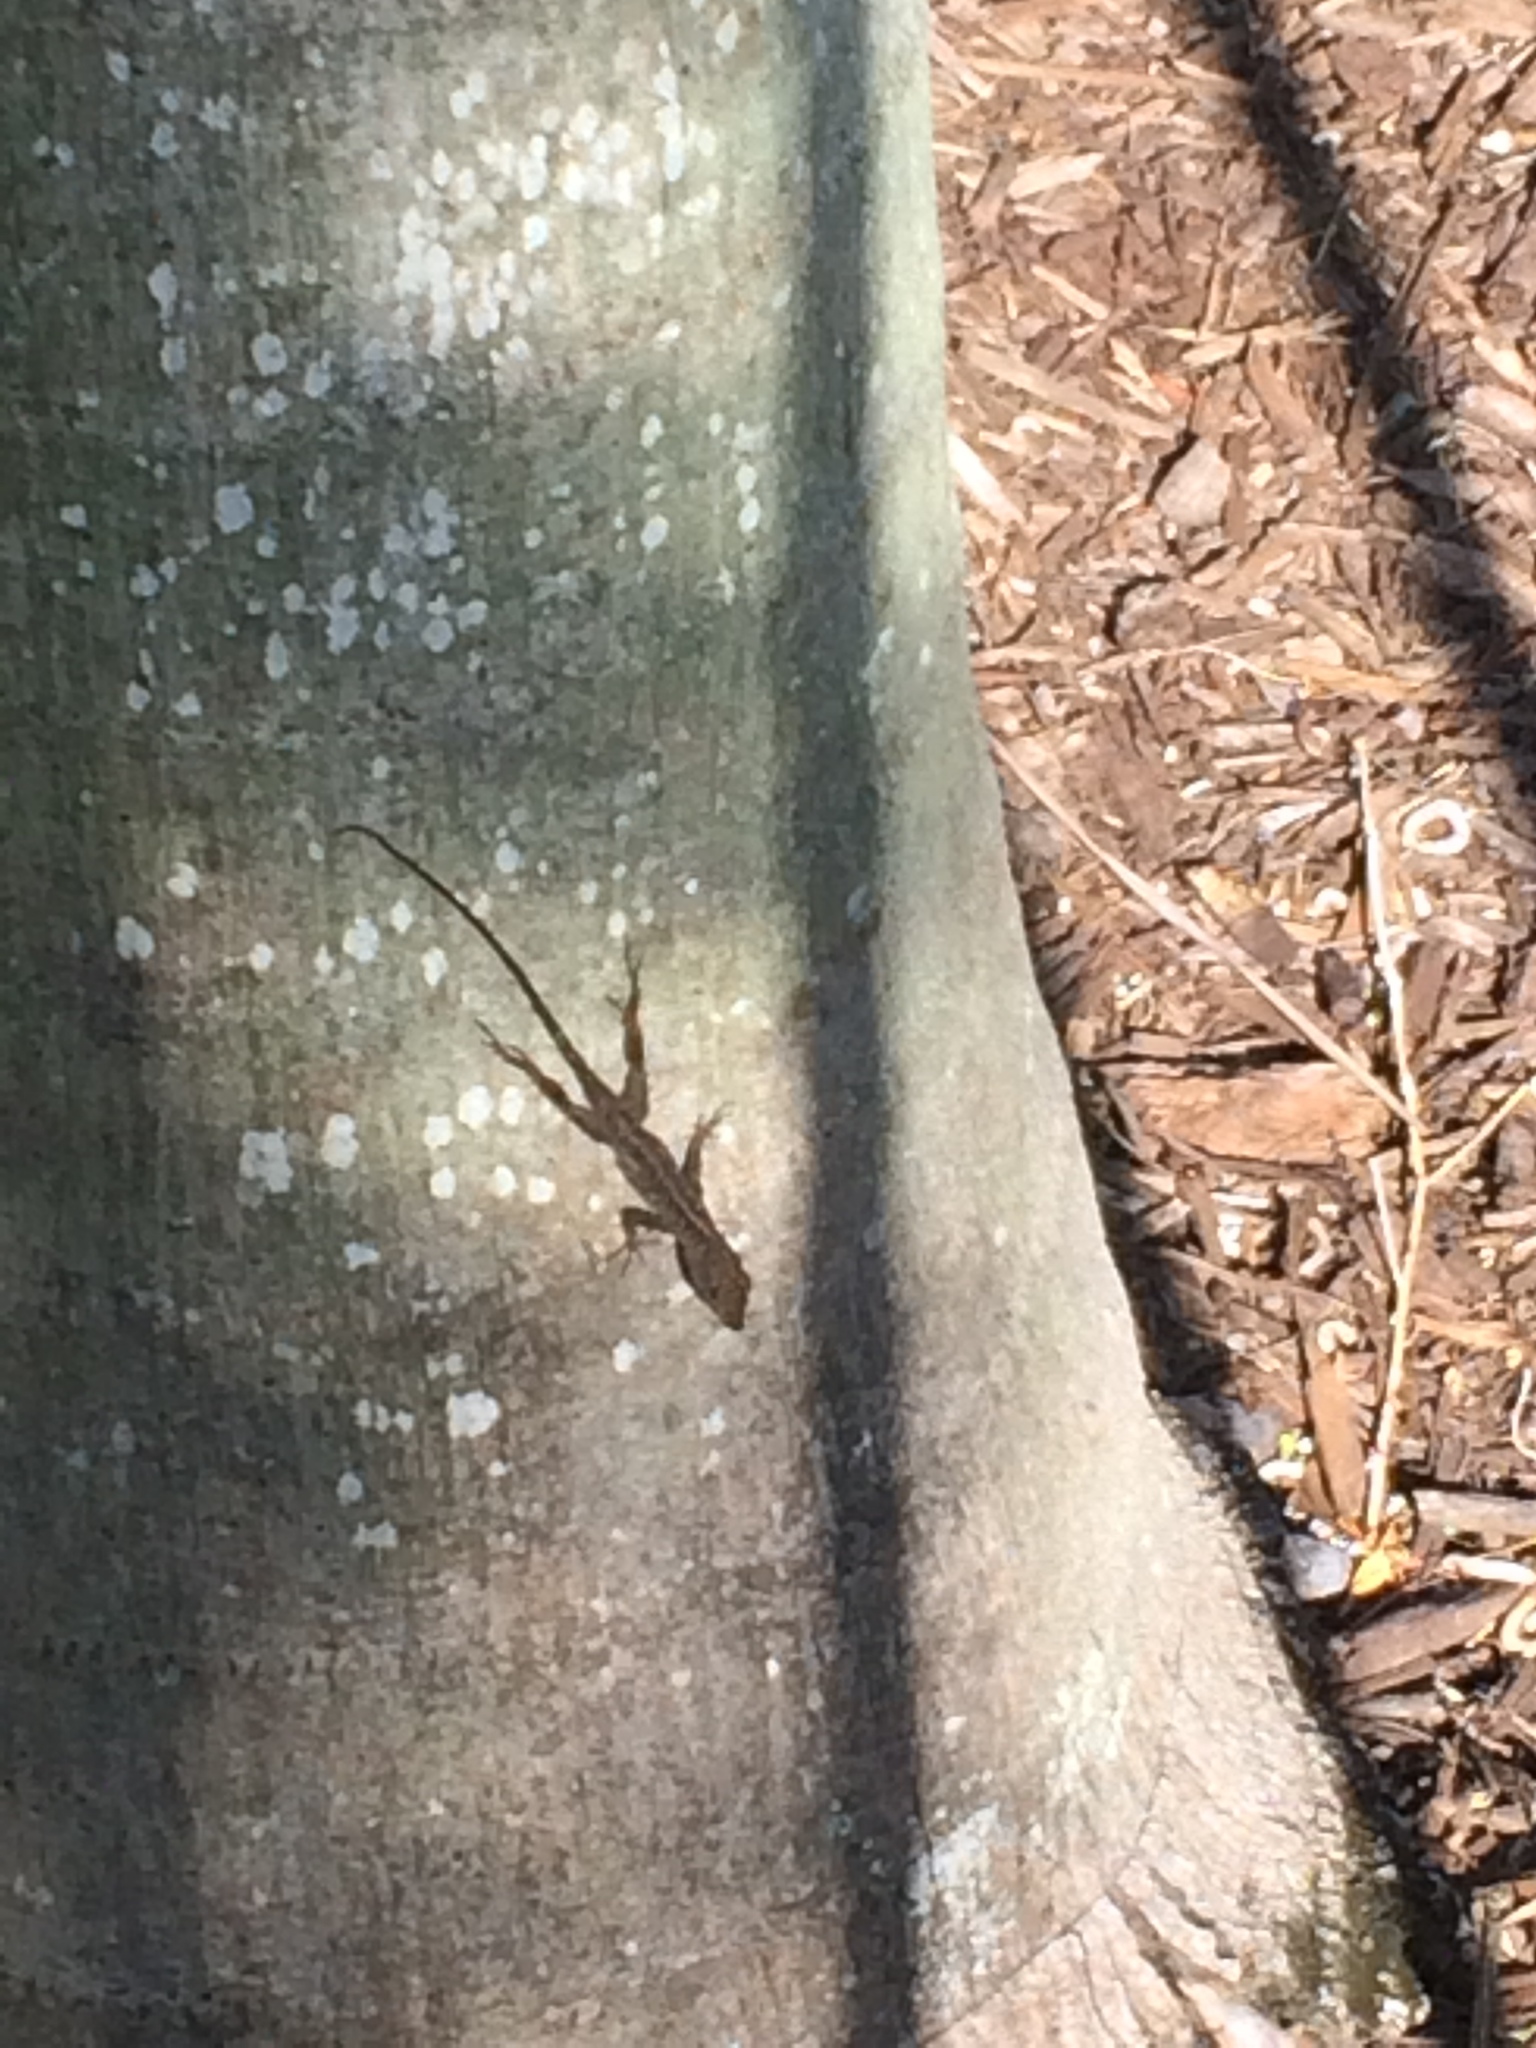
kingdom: Animalia
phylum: Chordata
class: Squamata
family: Dactyloidae
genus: Anolis
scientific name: Anolis sagrei
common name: Brown anole
